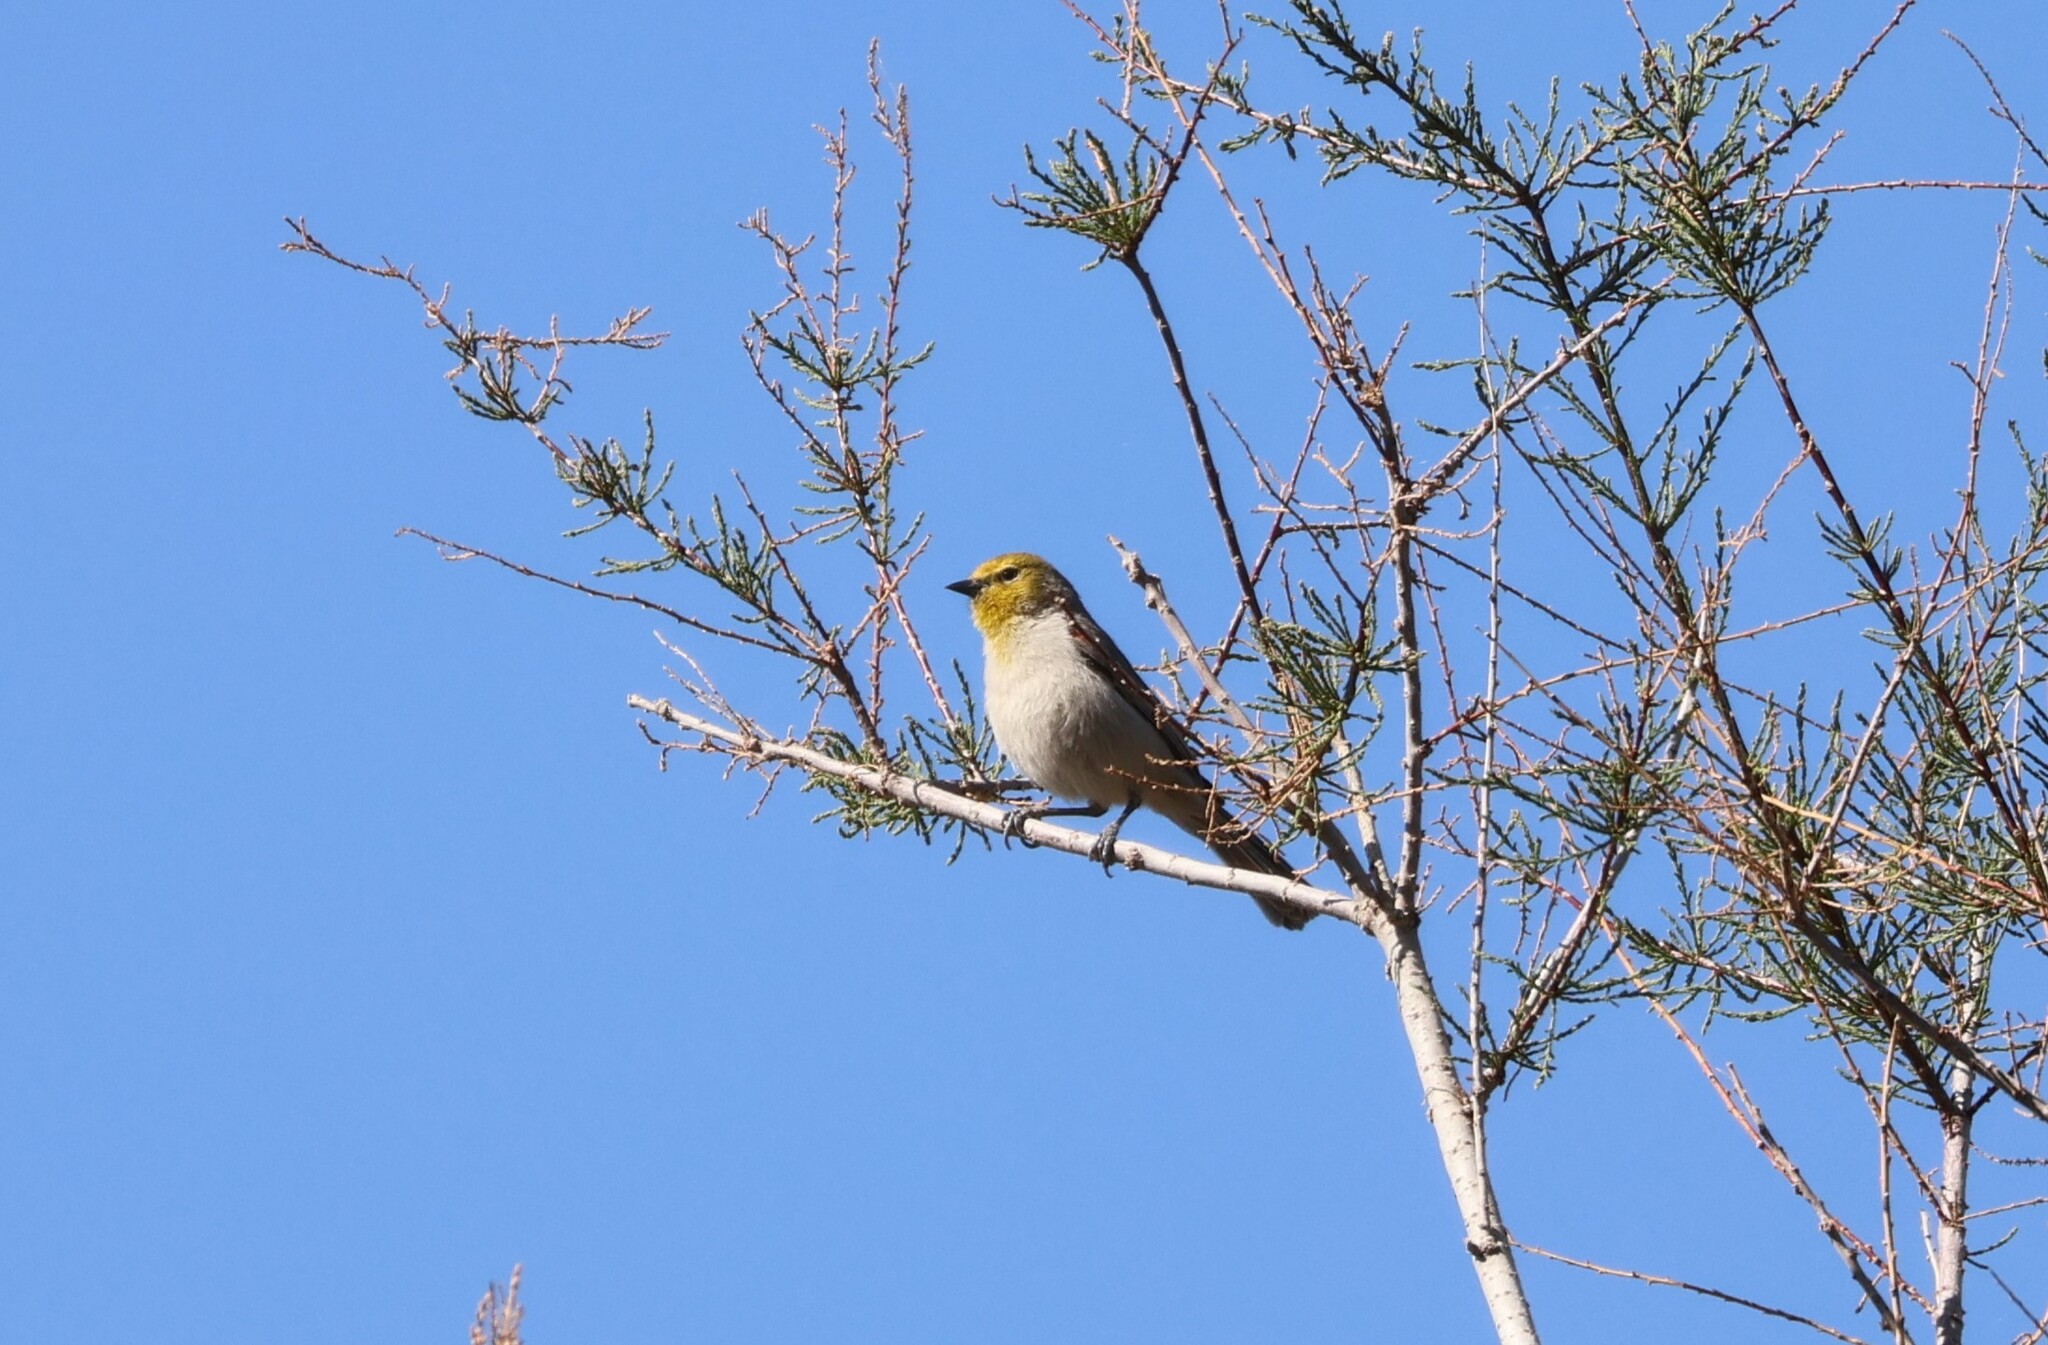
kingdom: Animalia
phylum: Chordata
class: Aves
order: Passeriformes
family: Remizidae
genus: Auriparus
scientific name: Auriparus flaviceps
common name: Verdin
